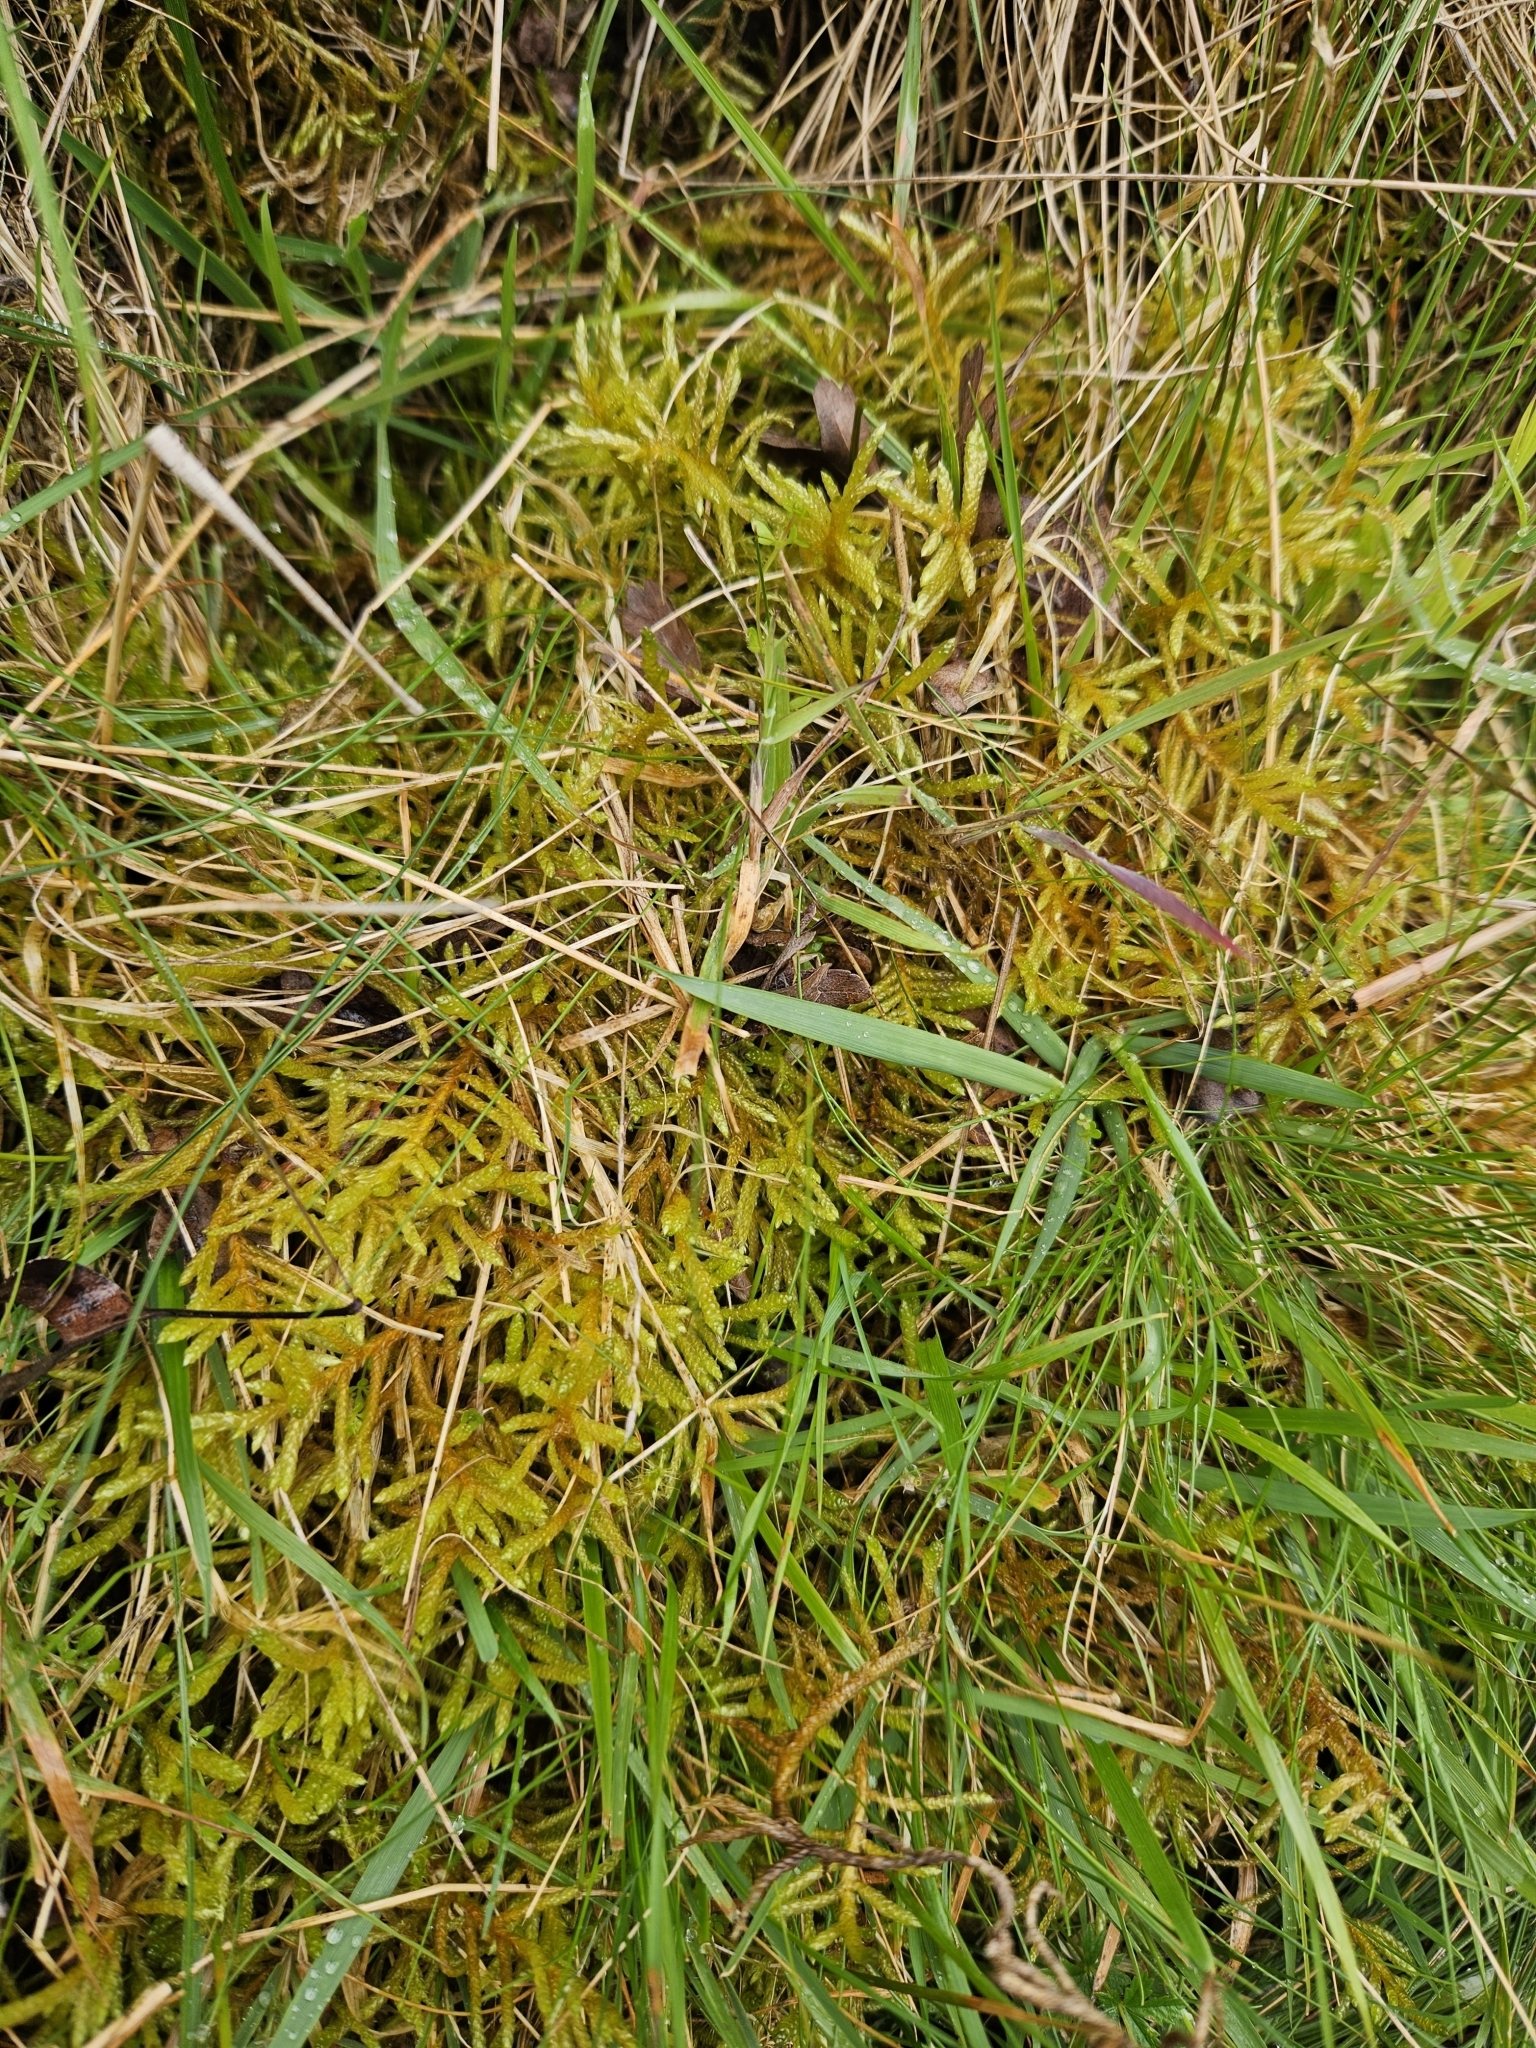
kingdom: Plantae
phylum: Bryophyta
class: Bryopsida
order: Hypnales
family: Brachytheciaceae
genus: Pseudoscleropodium
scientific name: Pseudoscleropodium purum
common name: Neat feather-moss
